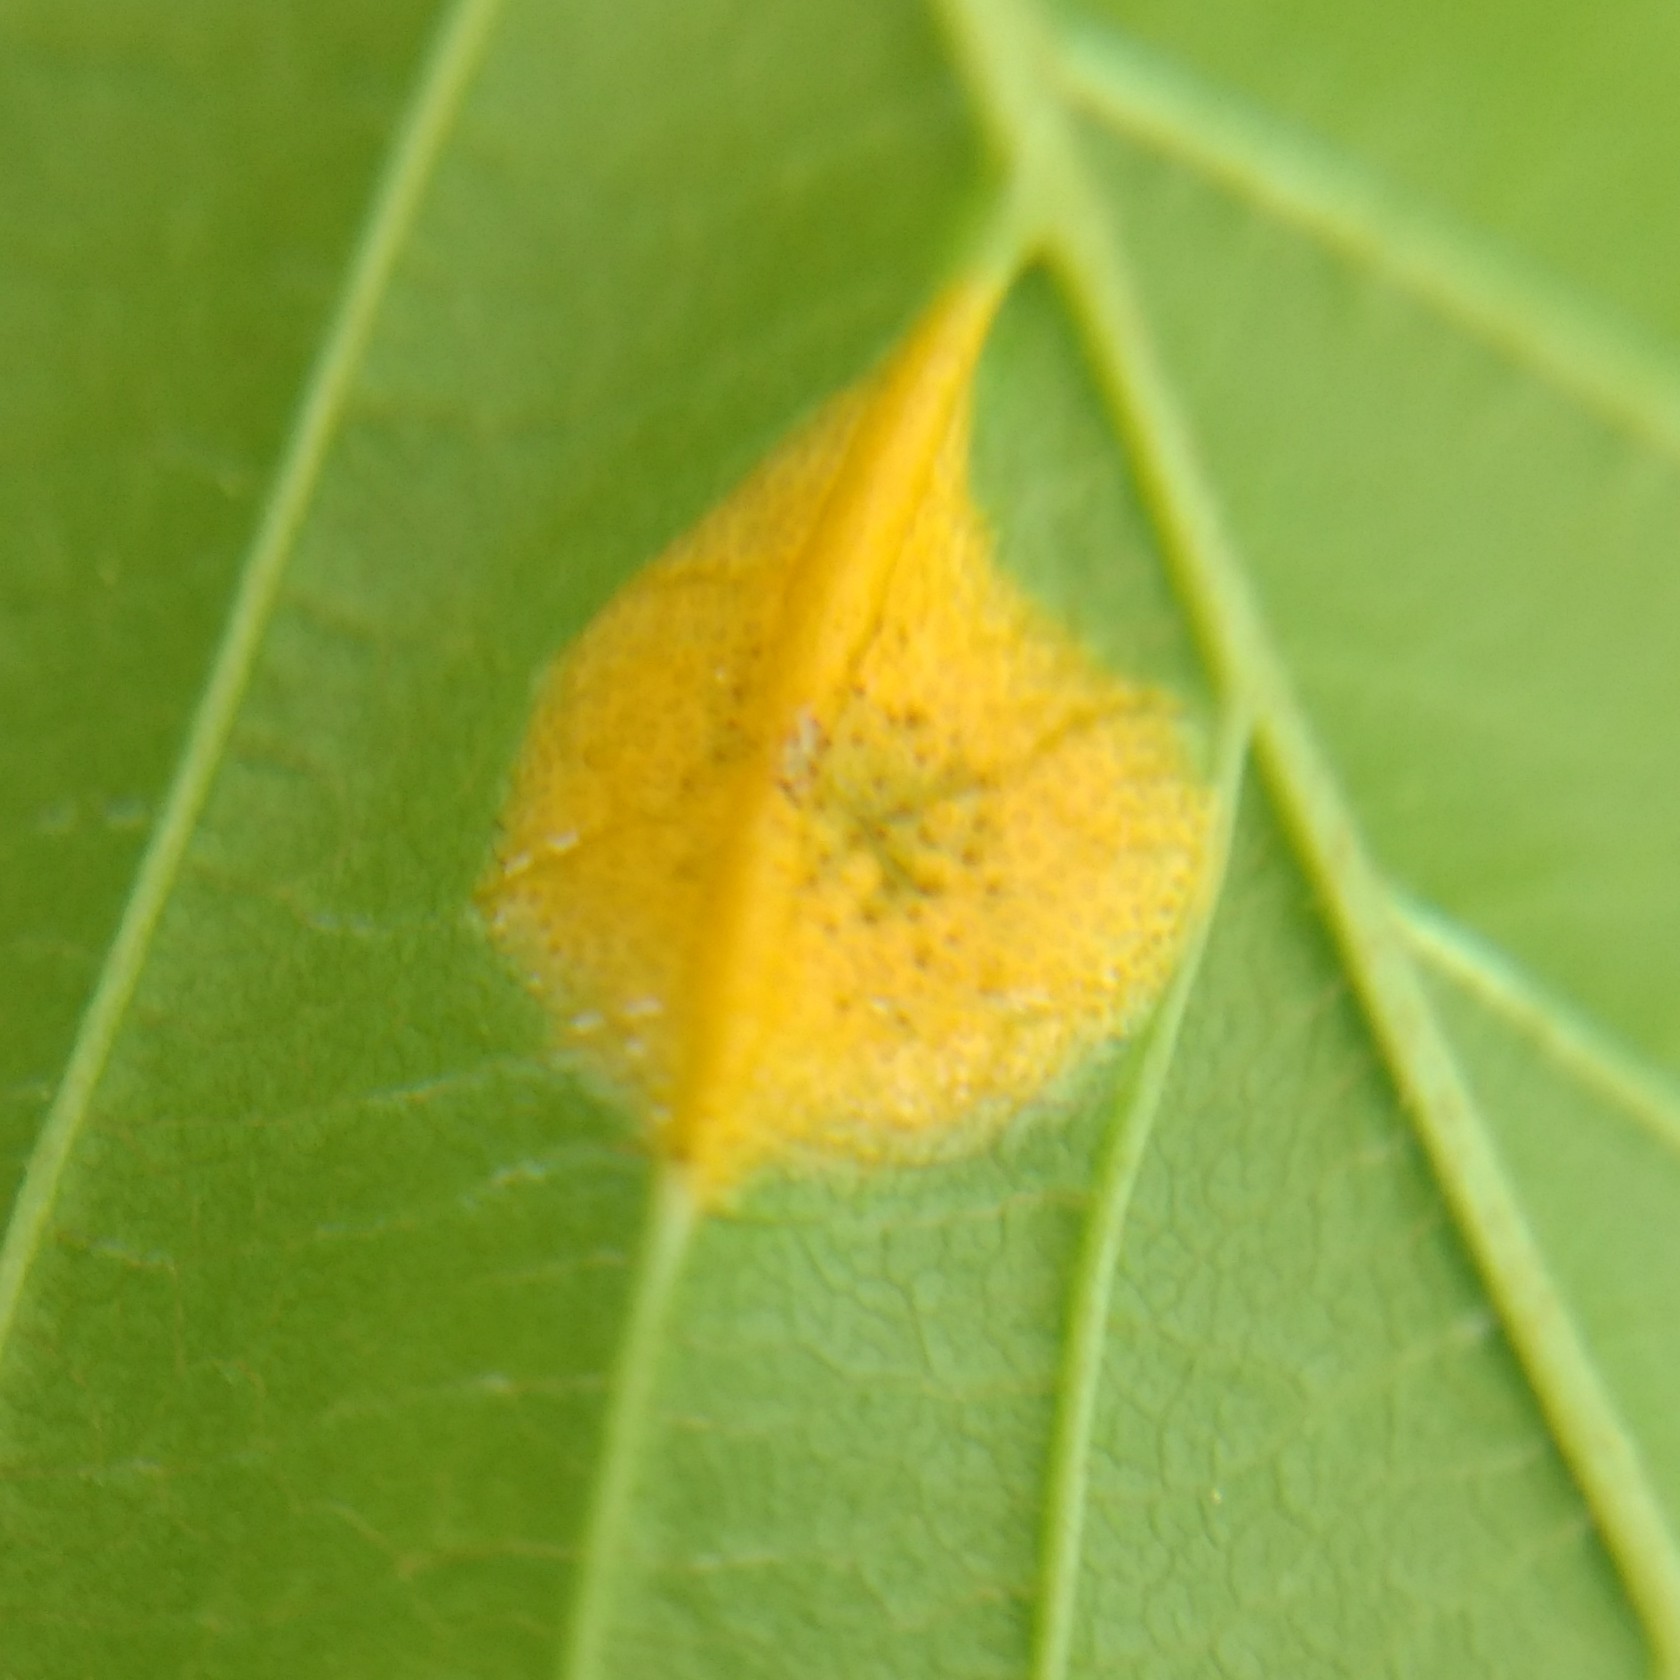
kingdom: Fungi
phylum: Basidiomycota
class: Pucciniomycetes
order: Pucciniales
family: Pucciniaceae
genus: Puccinia
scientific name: Puccinia coronata
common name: Crown rust
